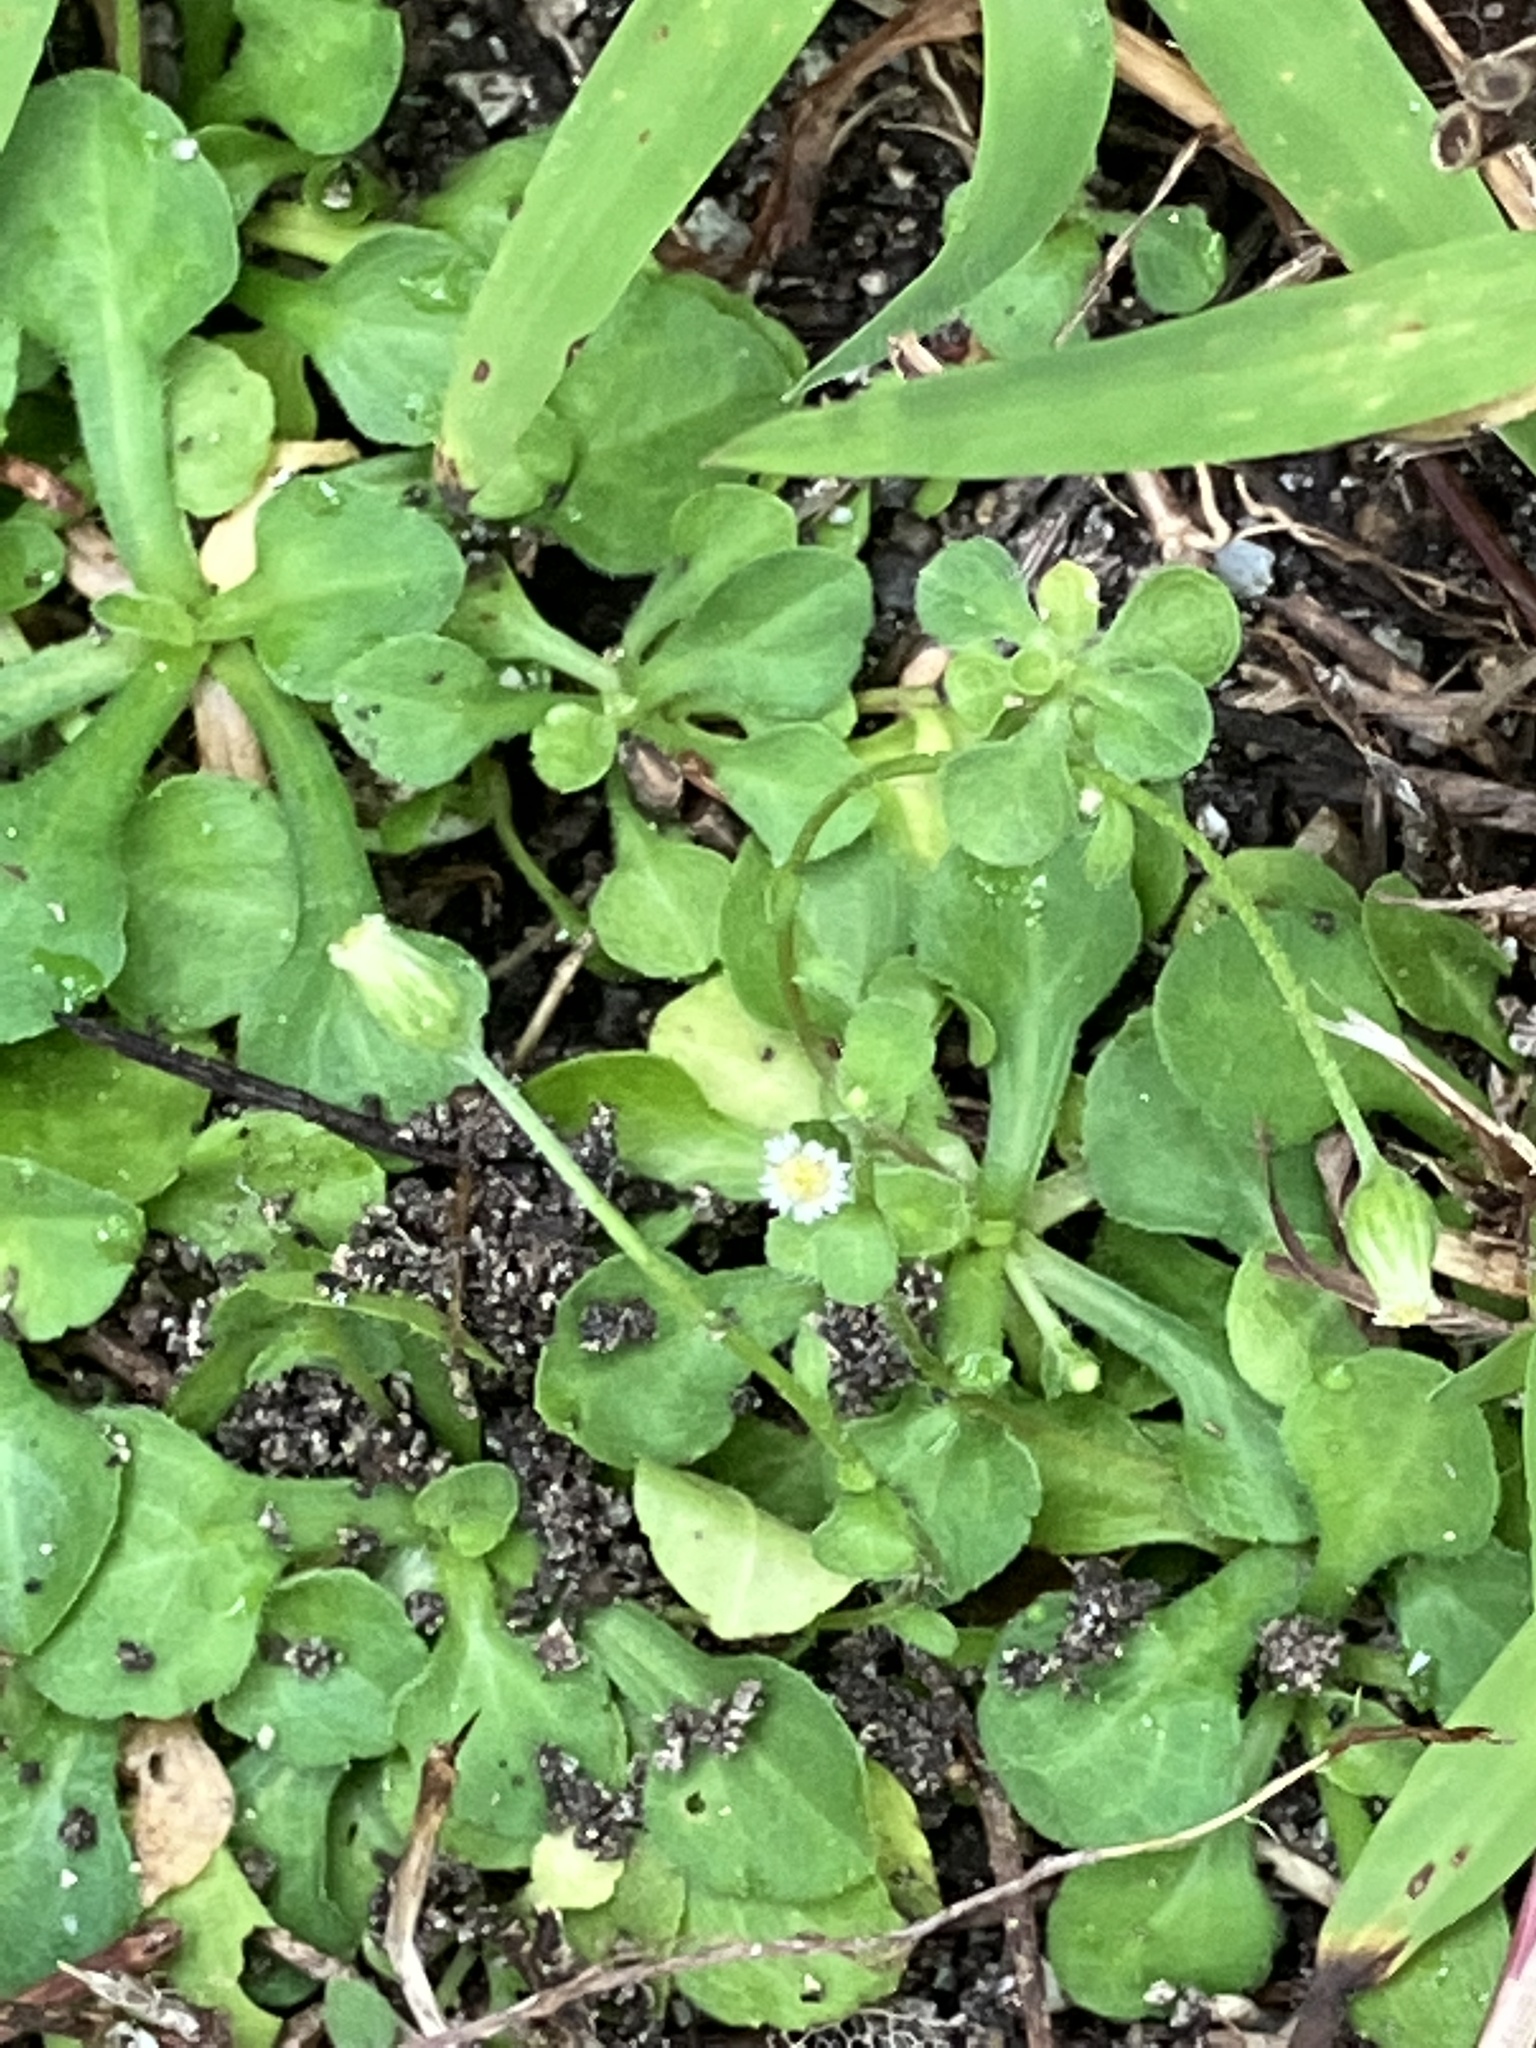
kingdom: Plantae
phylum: Tracheophyta
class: Magnoliopsida
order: Asterales
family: Asteraceae
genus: Erigeron
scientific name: Erigeron bellioides
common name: Bellorita
